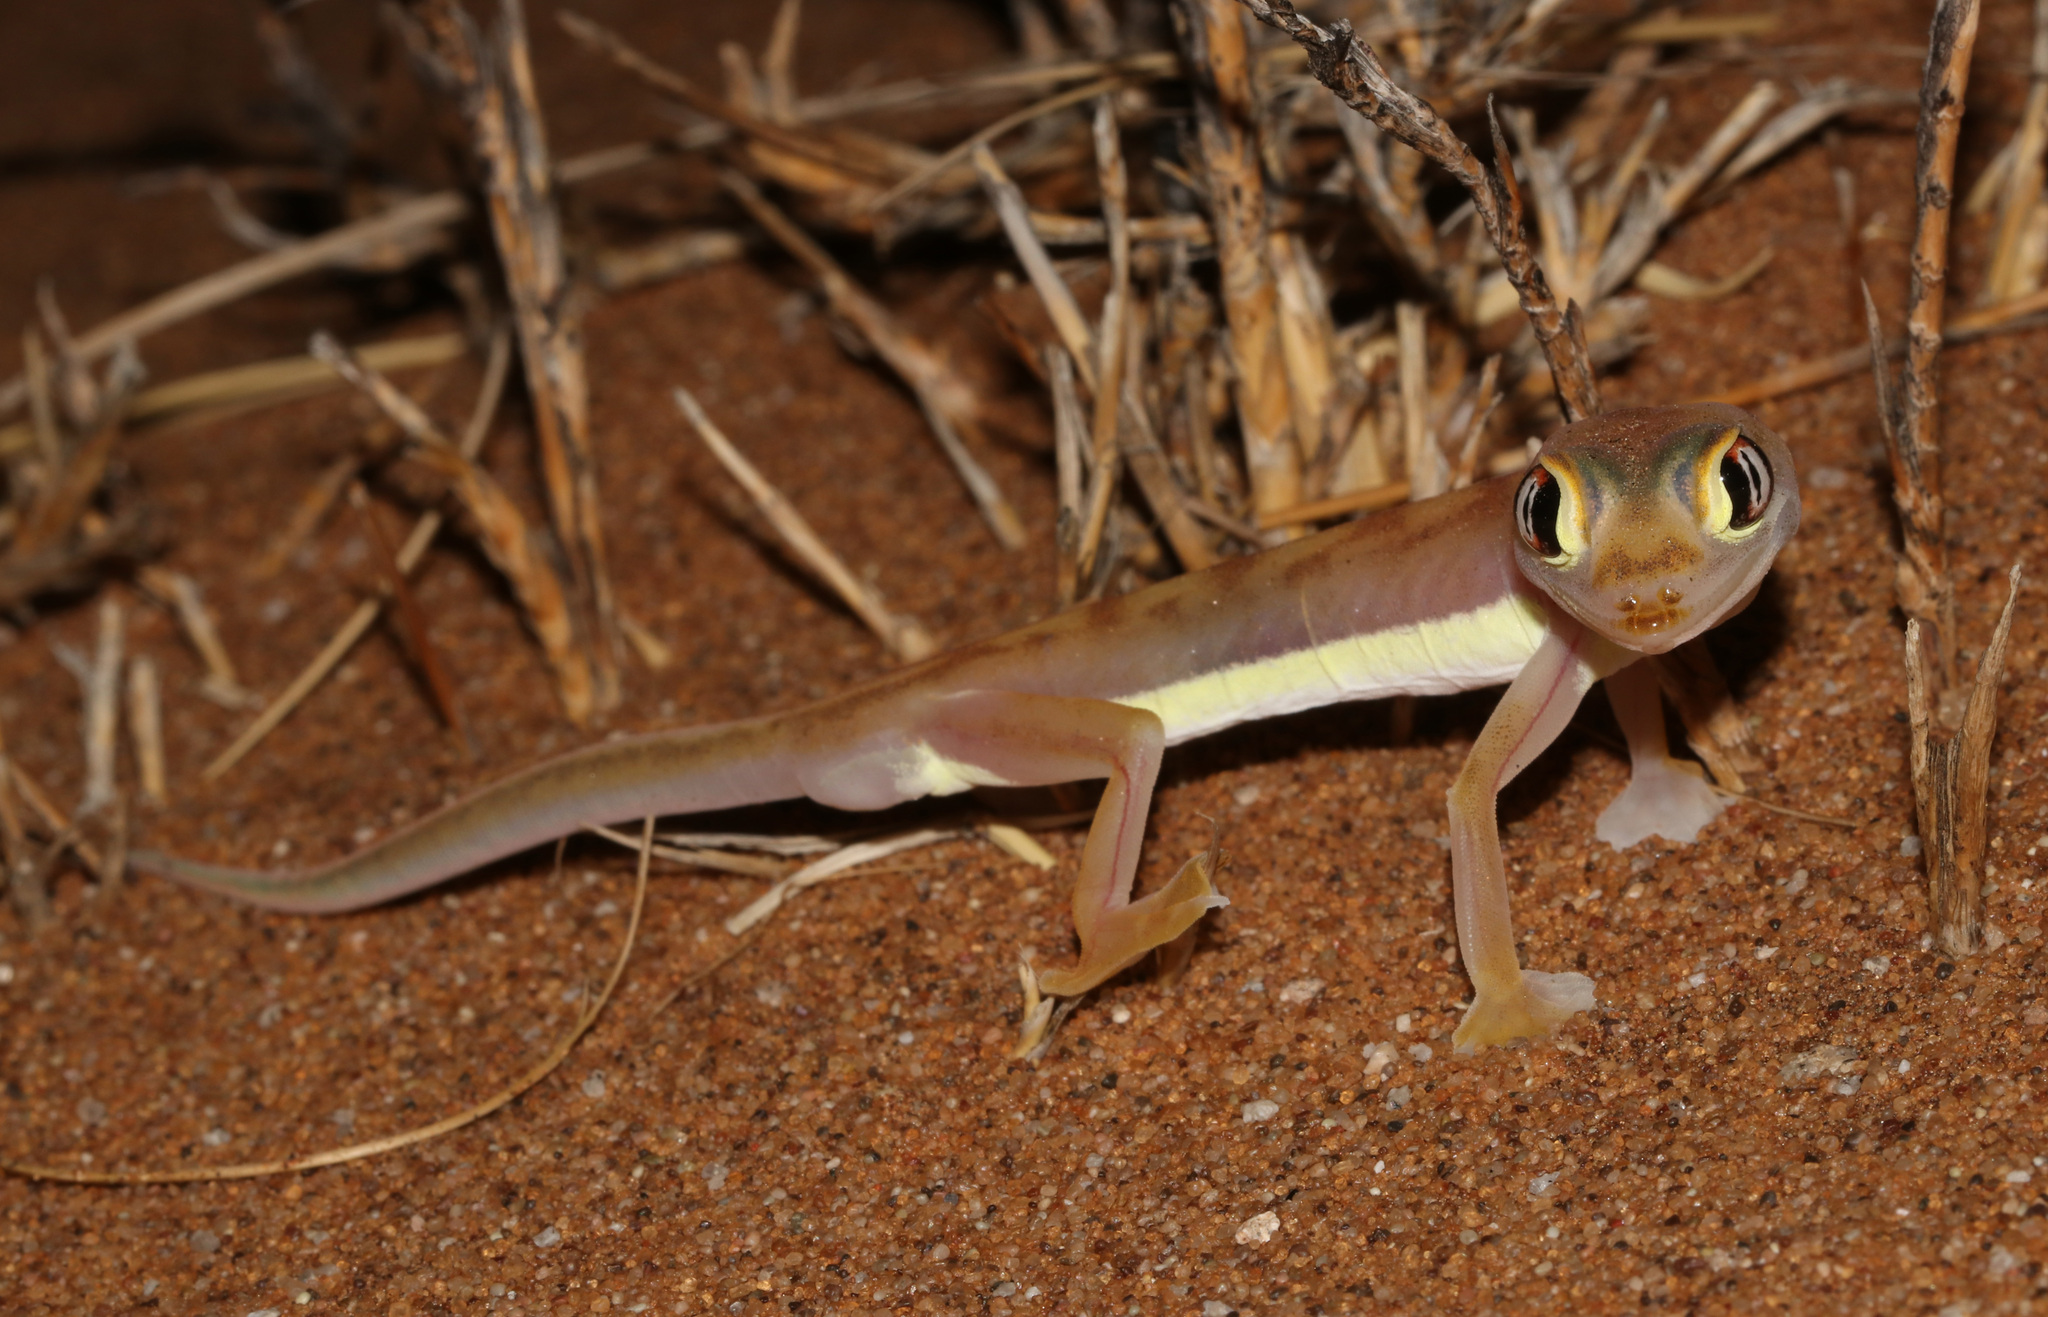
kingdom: Animalia
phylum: Chordata
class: Squamata
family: Gekkonidae
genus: Pachydactylus
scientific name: Pachydactylus rangei
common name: Namib sand gecko
